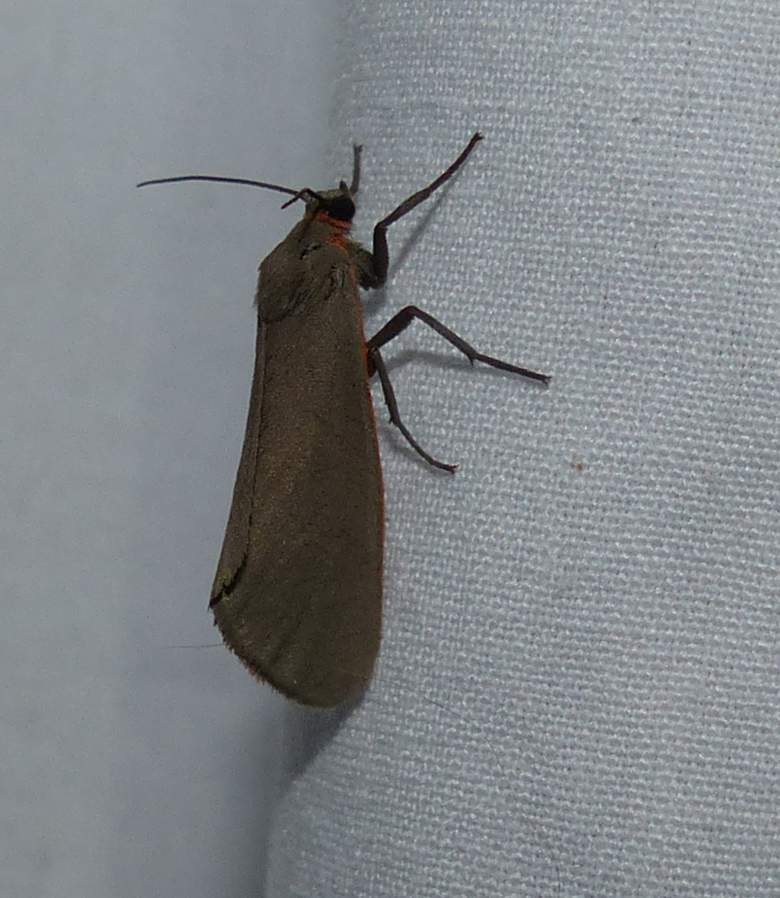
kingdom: Animalia
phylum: Arthropoda
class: Insecta
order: Lepidoptera
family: Erebidae
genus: Virbia
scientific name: Virbia laeta
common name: Joyful holomelina moth
